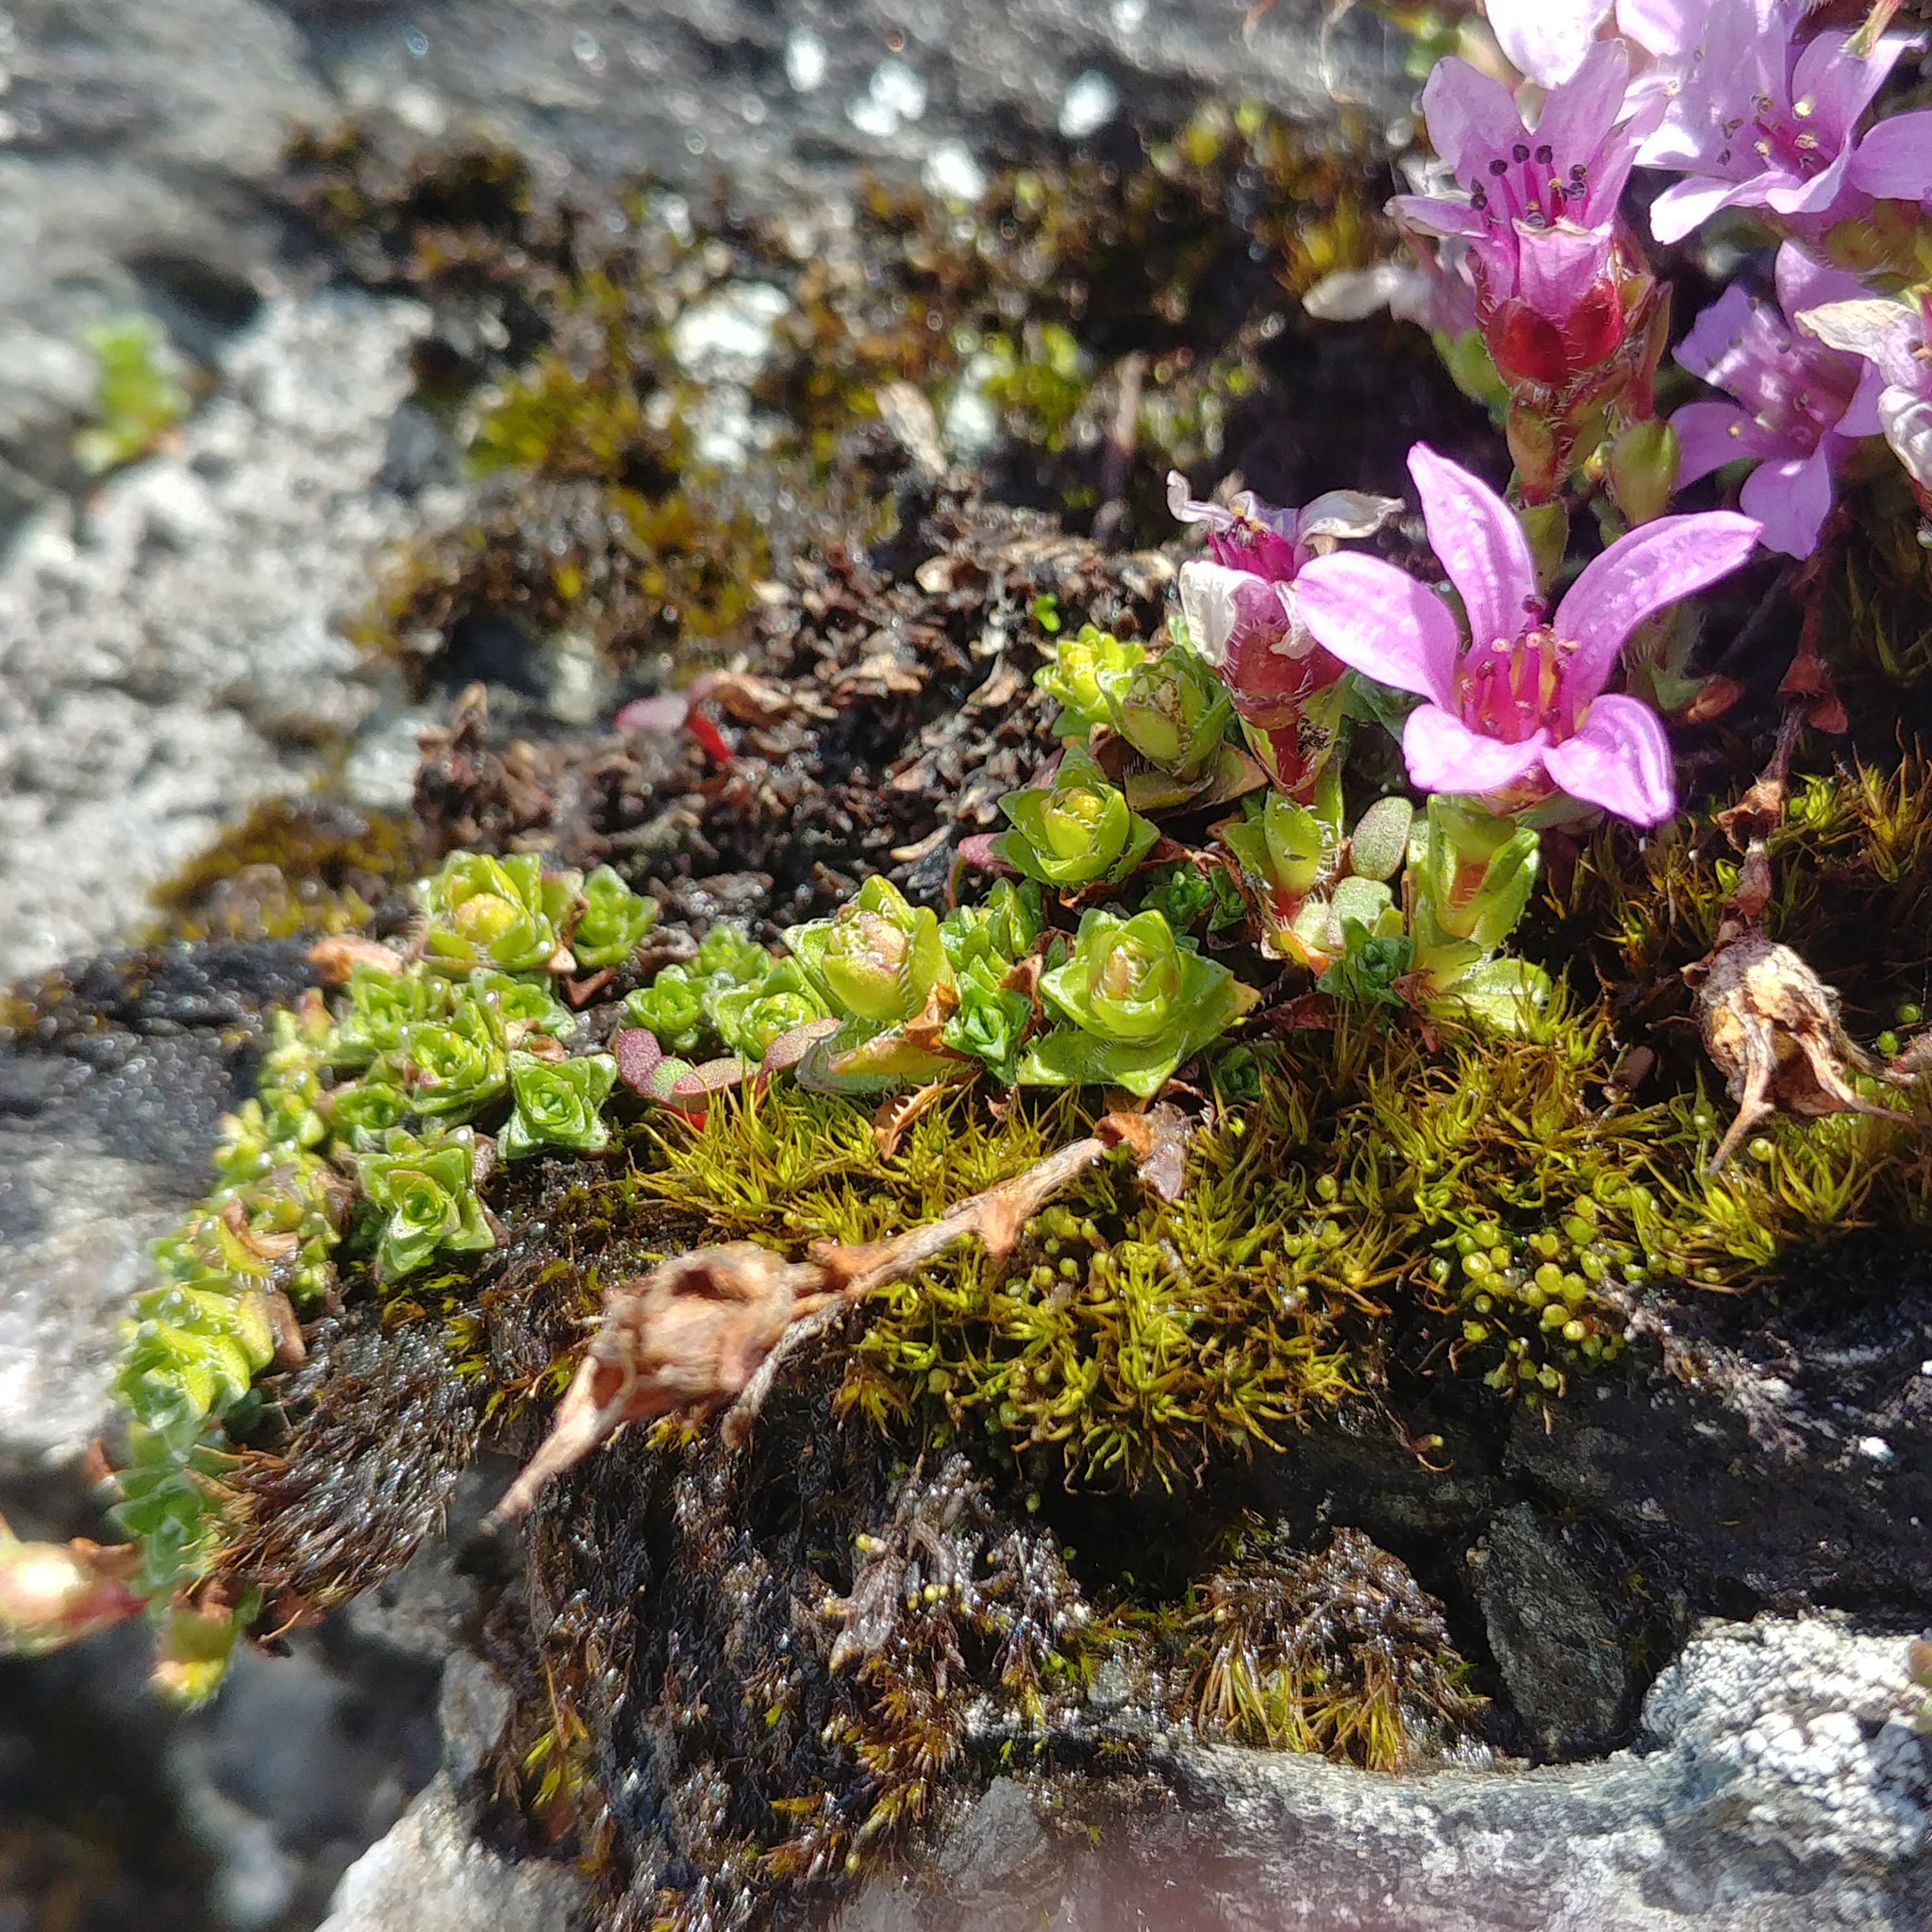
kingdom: Plantae
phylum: Tracheophyta
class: Magnoliopsida
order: Saxifragales
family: Saxifragaceae
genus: Saxifraga
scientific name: Saxifraga oppositifolia
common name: Purple saxifrage
